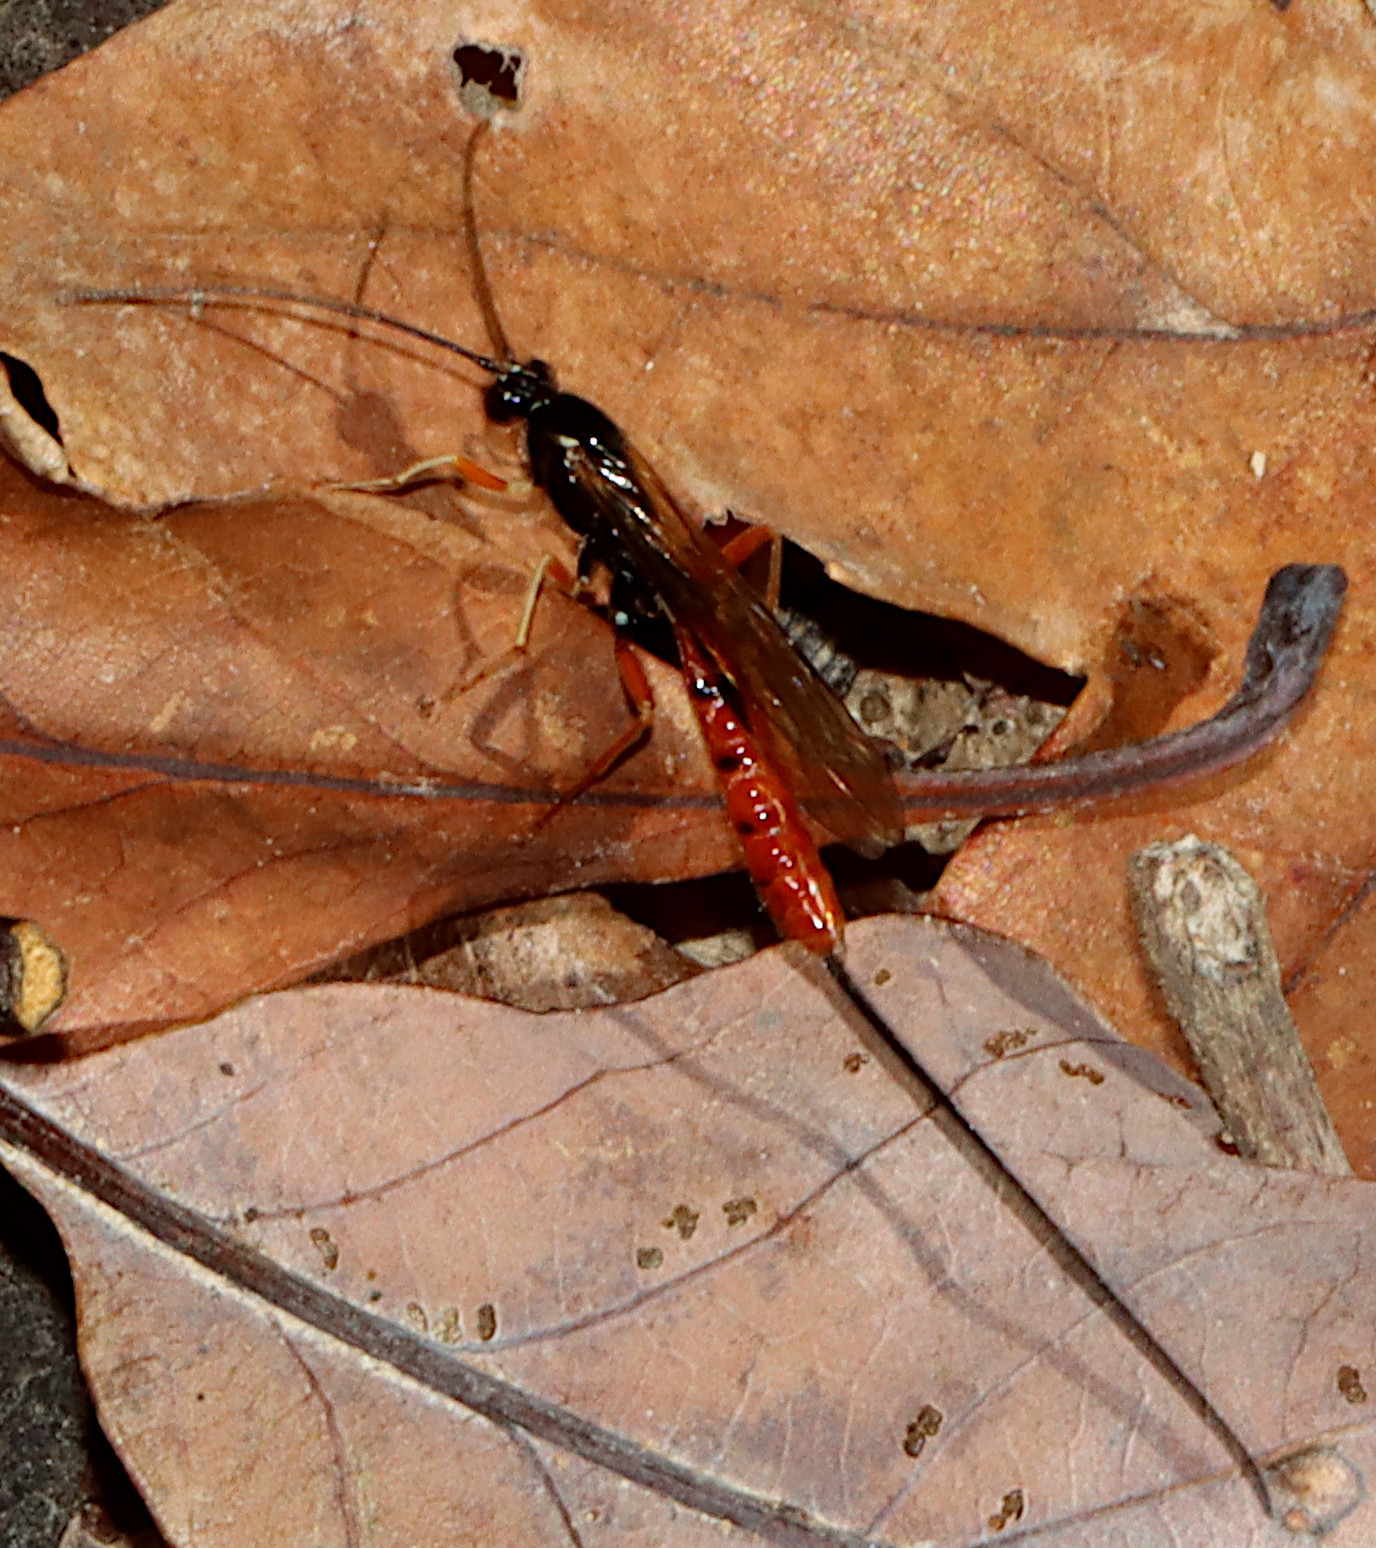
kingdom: Animalia
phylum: Arthropoda
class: Insecta
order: Hymenoptera
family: Ichneumonidae
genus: Dolichomitus
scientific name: Dolichomitus irritator
